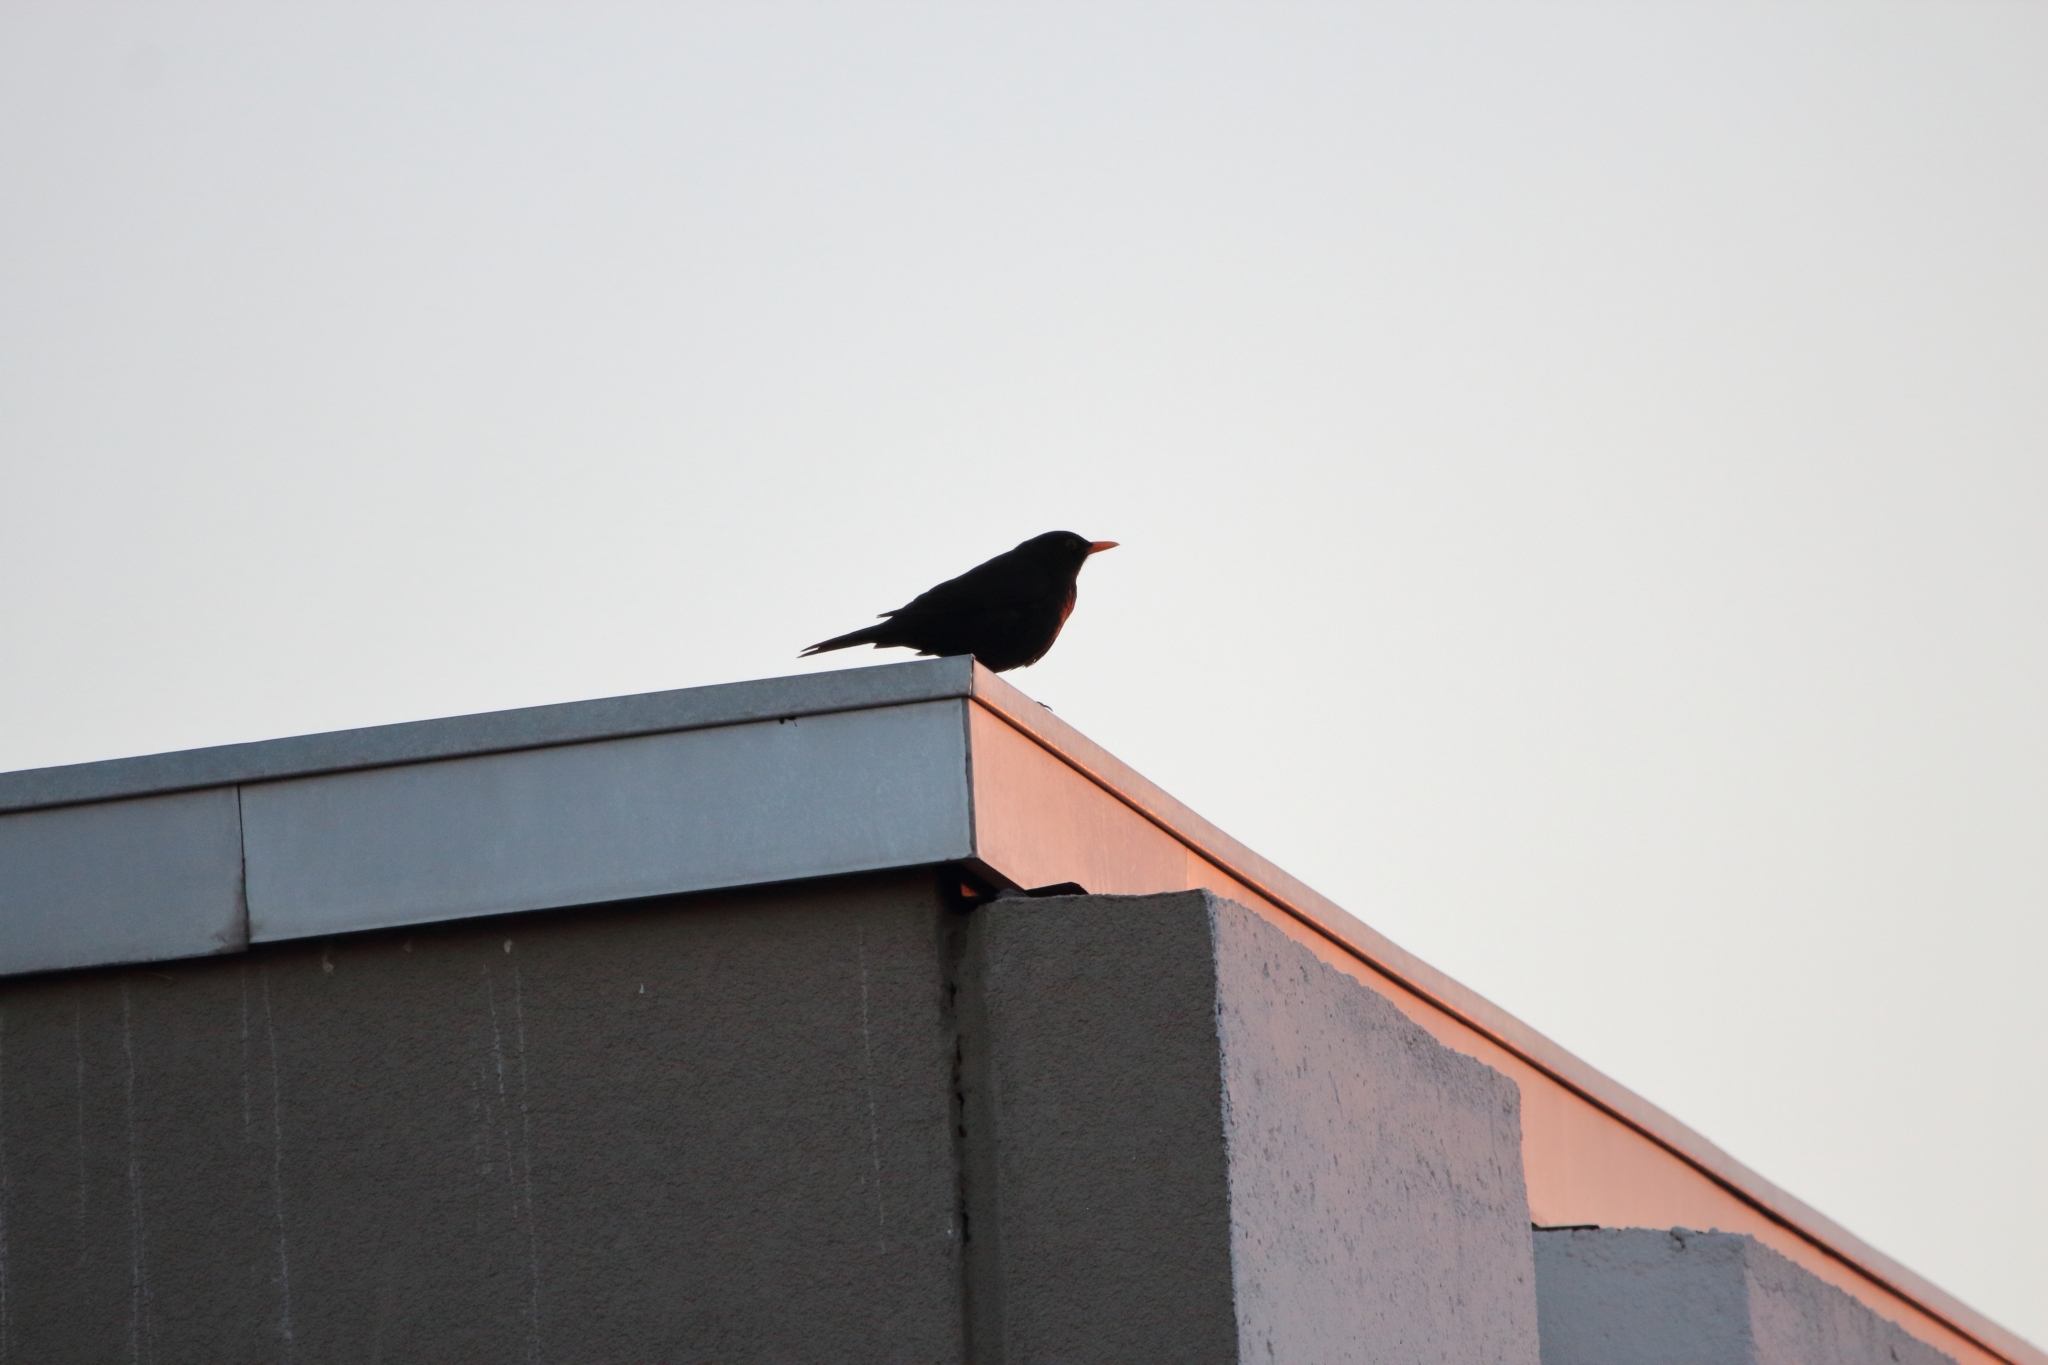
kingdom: Animalia
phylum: Chordata
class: Aves
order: Passeriformes
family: Turdidae
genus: Turdus
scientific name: Turdus merula
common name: Common blackbird
